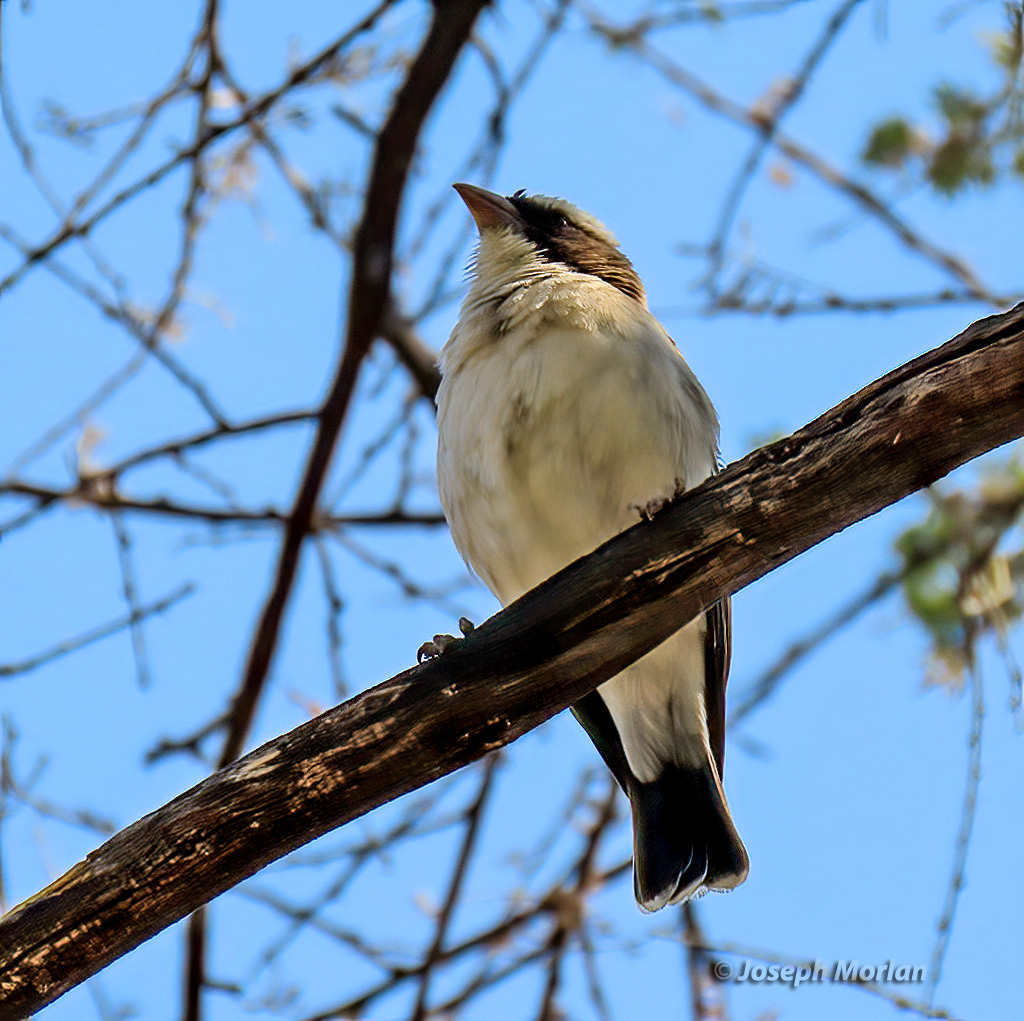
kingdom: Animalia
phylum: Chordata
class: Aves
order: Passeriformes
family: Passeridae
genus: Plocepasser
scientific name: Plocepasser mahali
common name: White-browed sparrow-weaver
